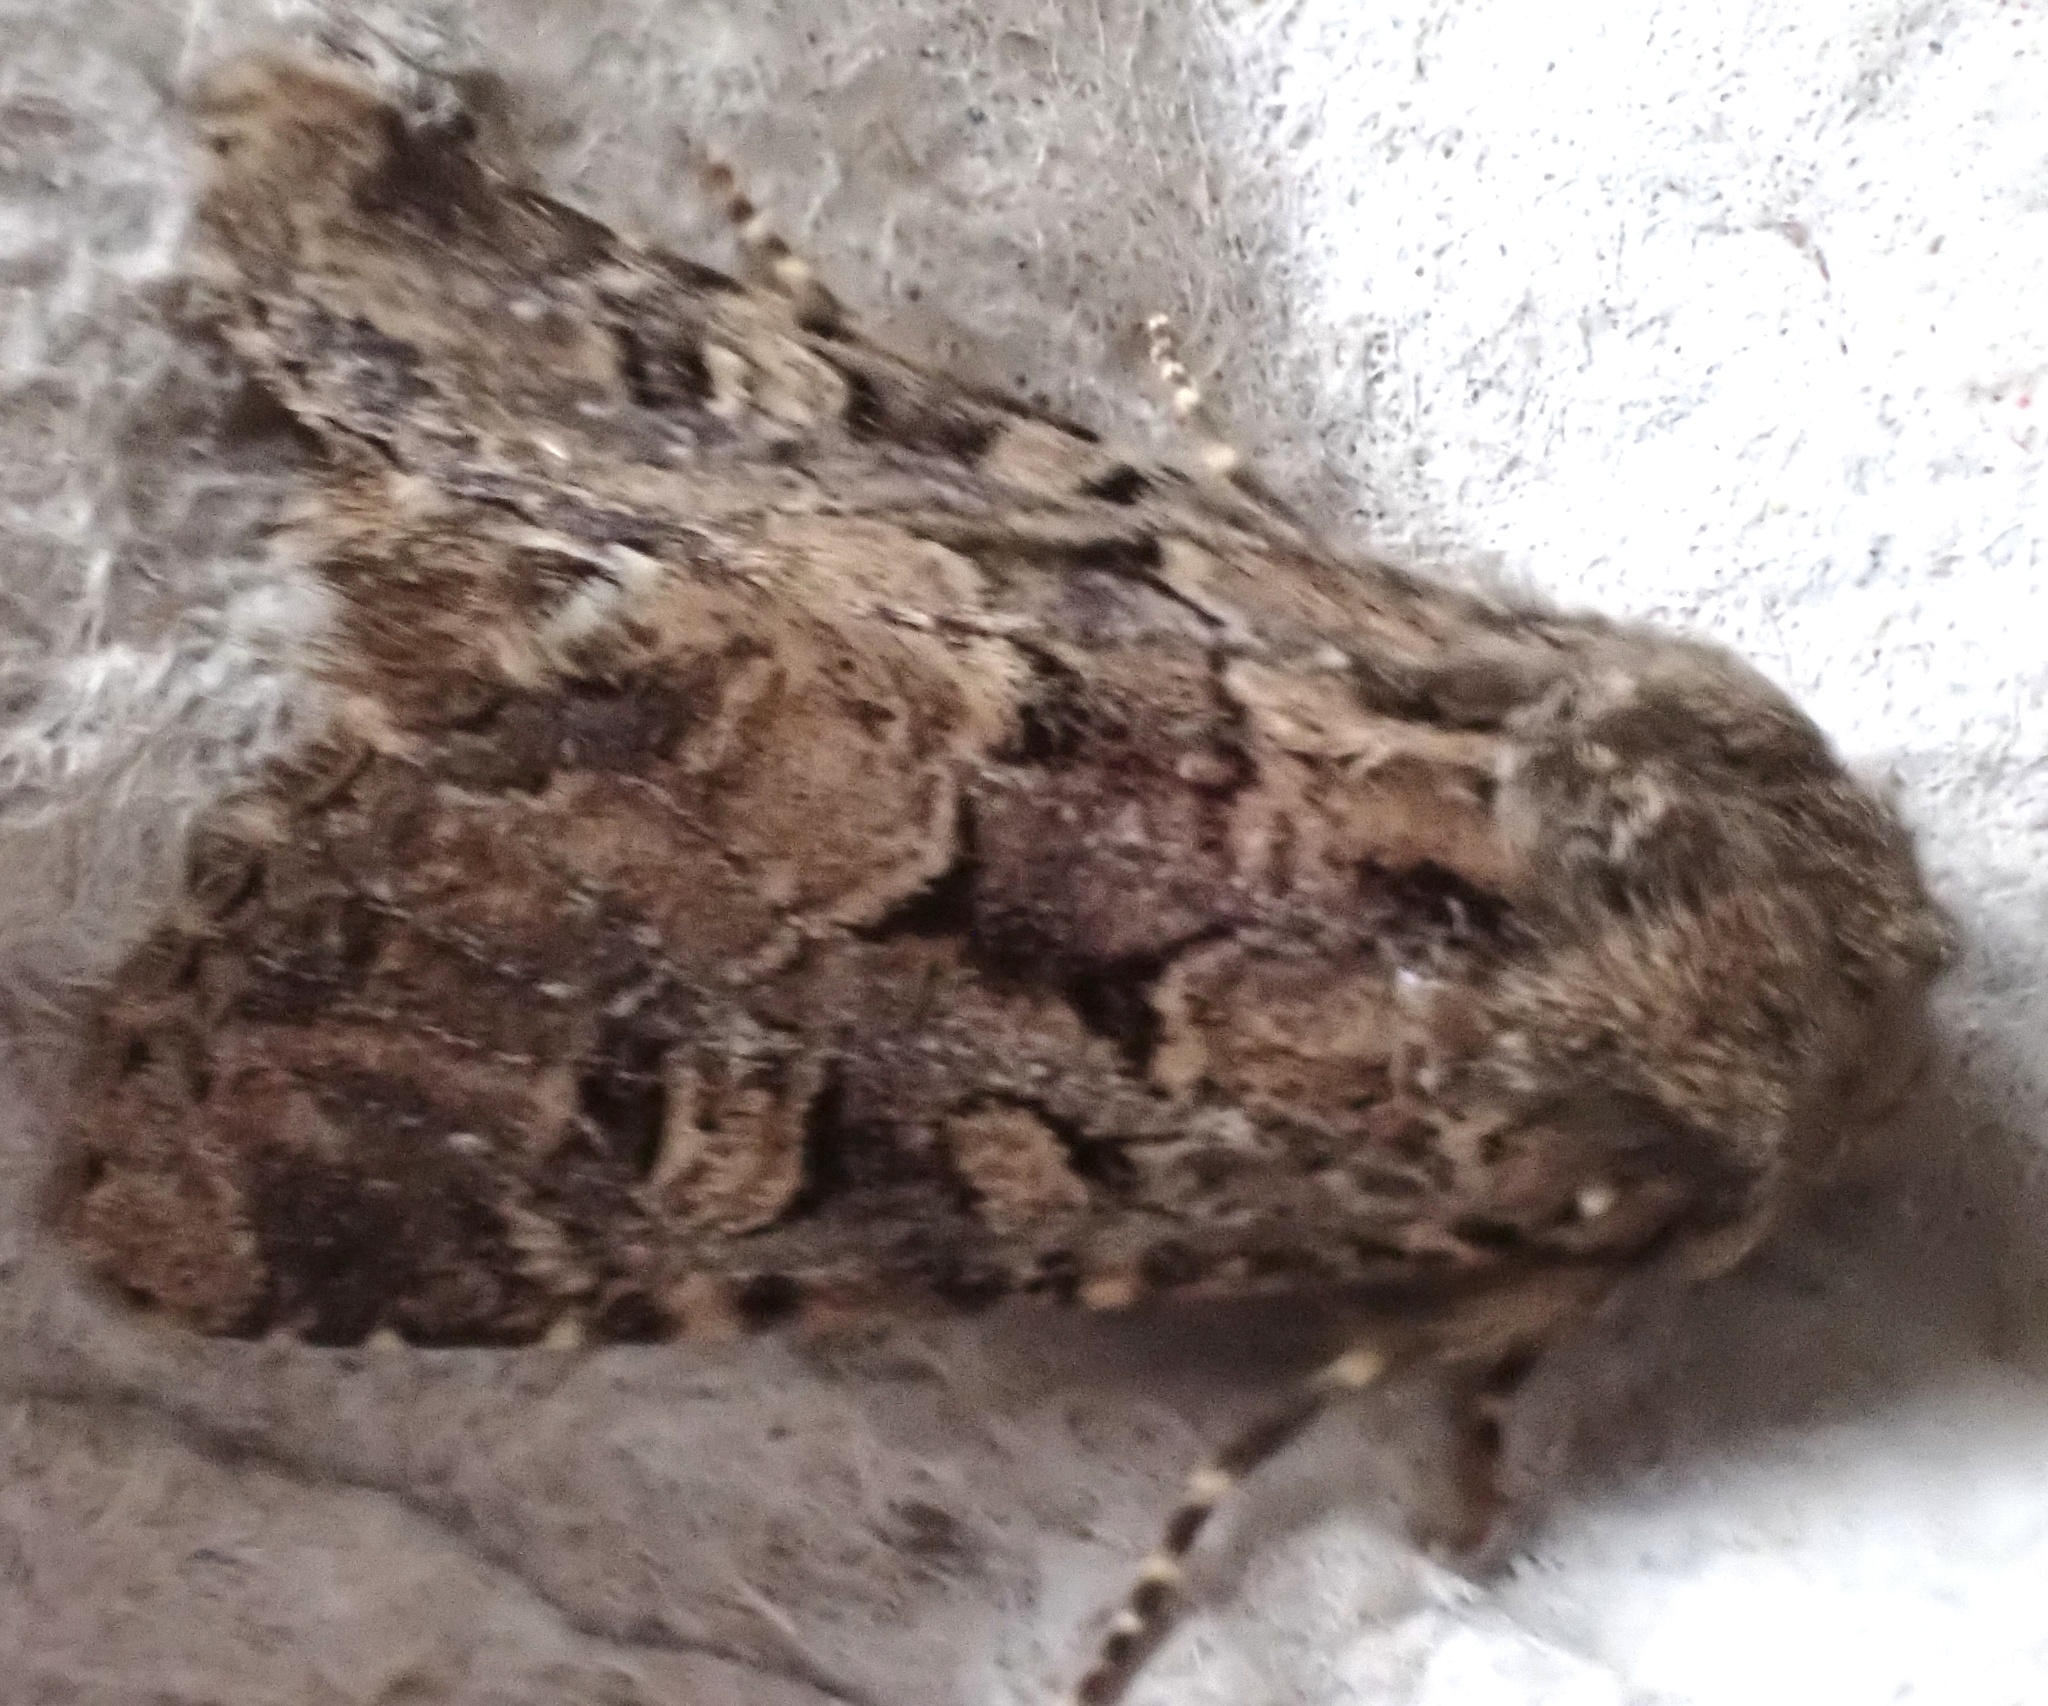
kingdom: Animalia
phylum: Arthropoda
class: Insecta
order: Lepidoptera
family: Noctuidae
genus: Luperina
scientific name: Luperina testacea
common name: Flounced rustic
